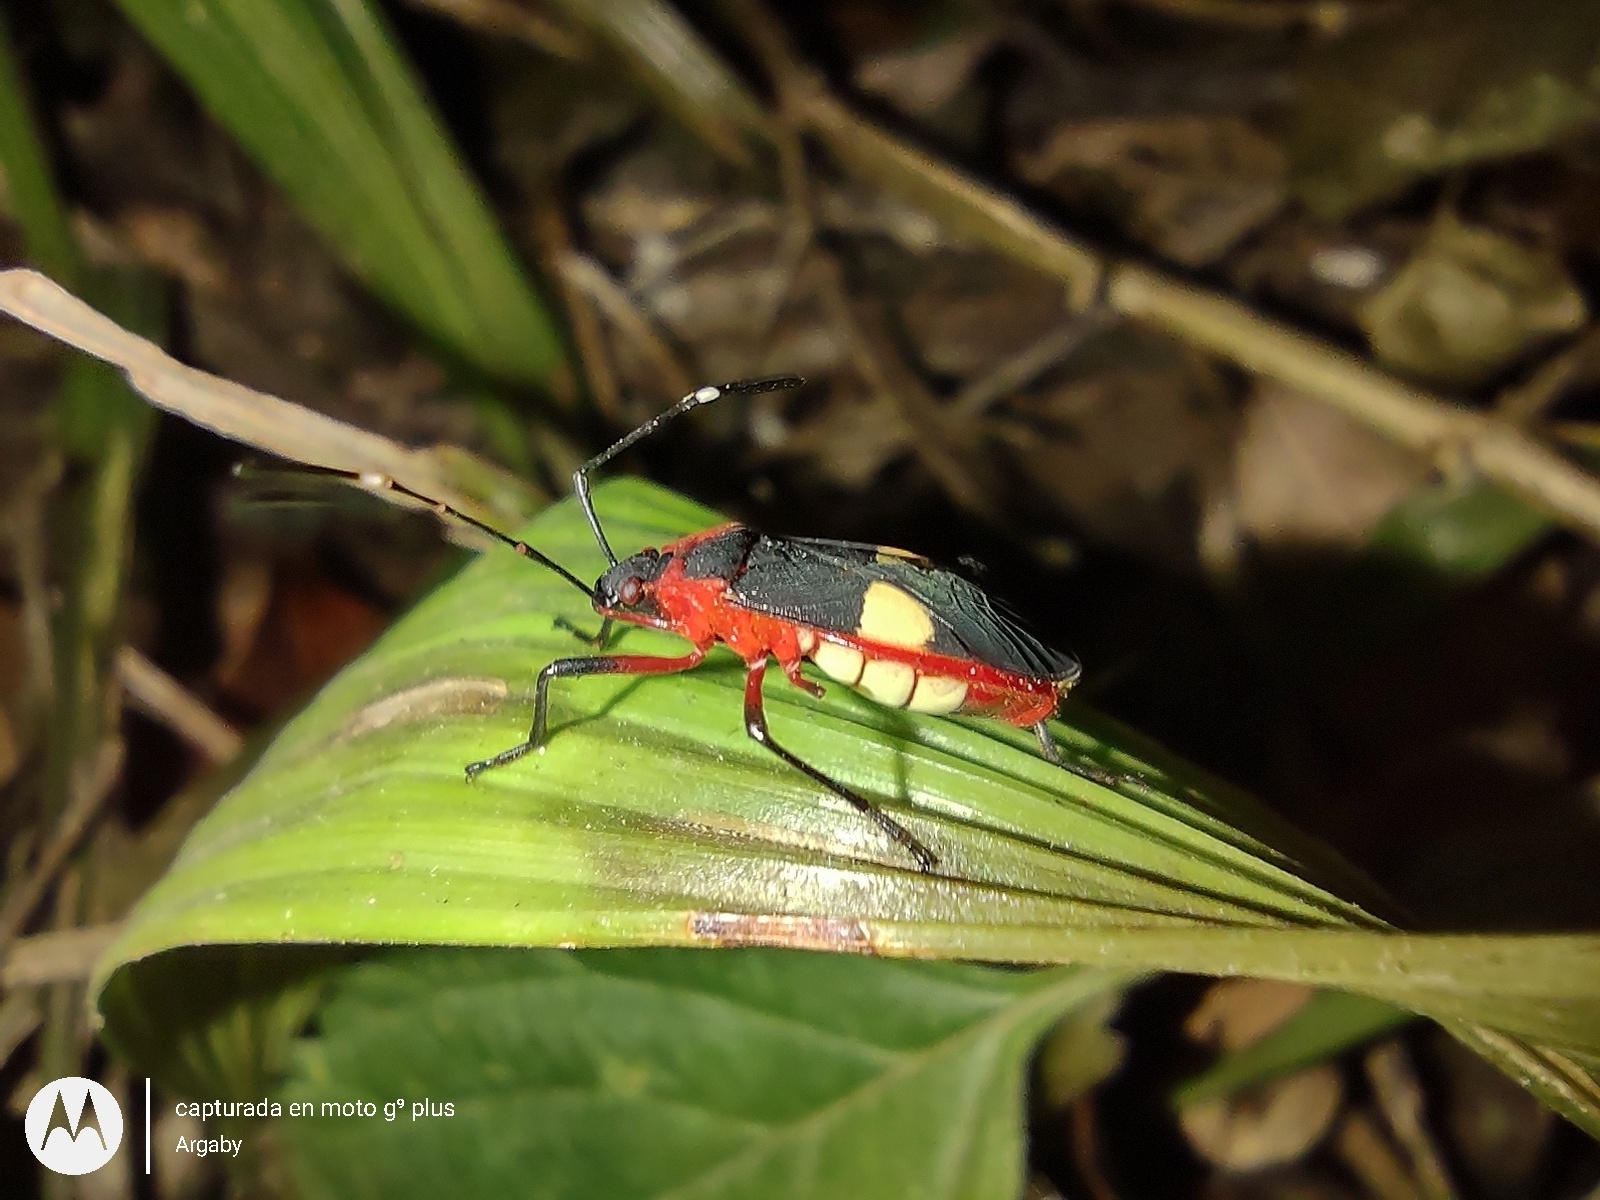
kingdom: Animalia
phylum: Arthropoda
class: Insecta
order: Hemiptera
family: Pyrrhocoridae
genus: Dysdercus
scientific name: Dysdercus albofasciatus
